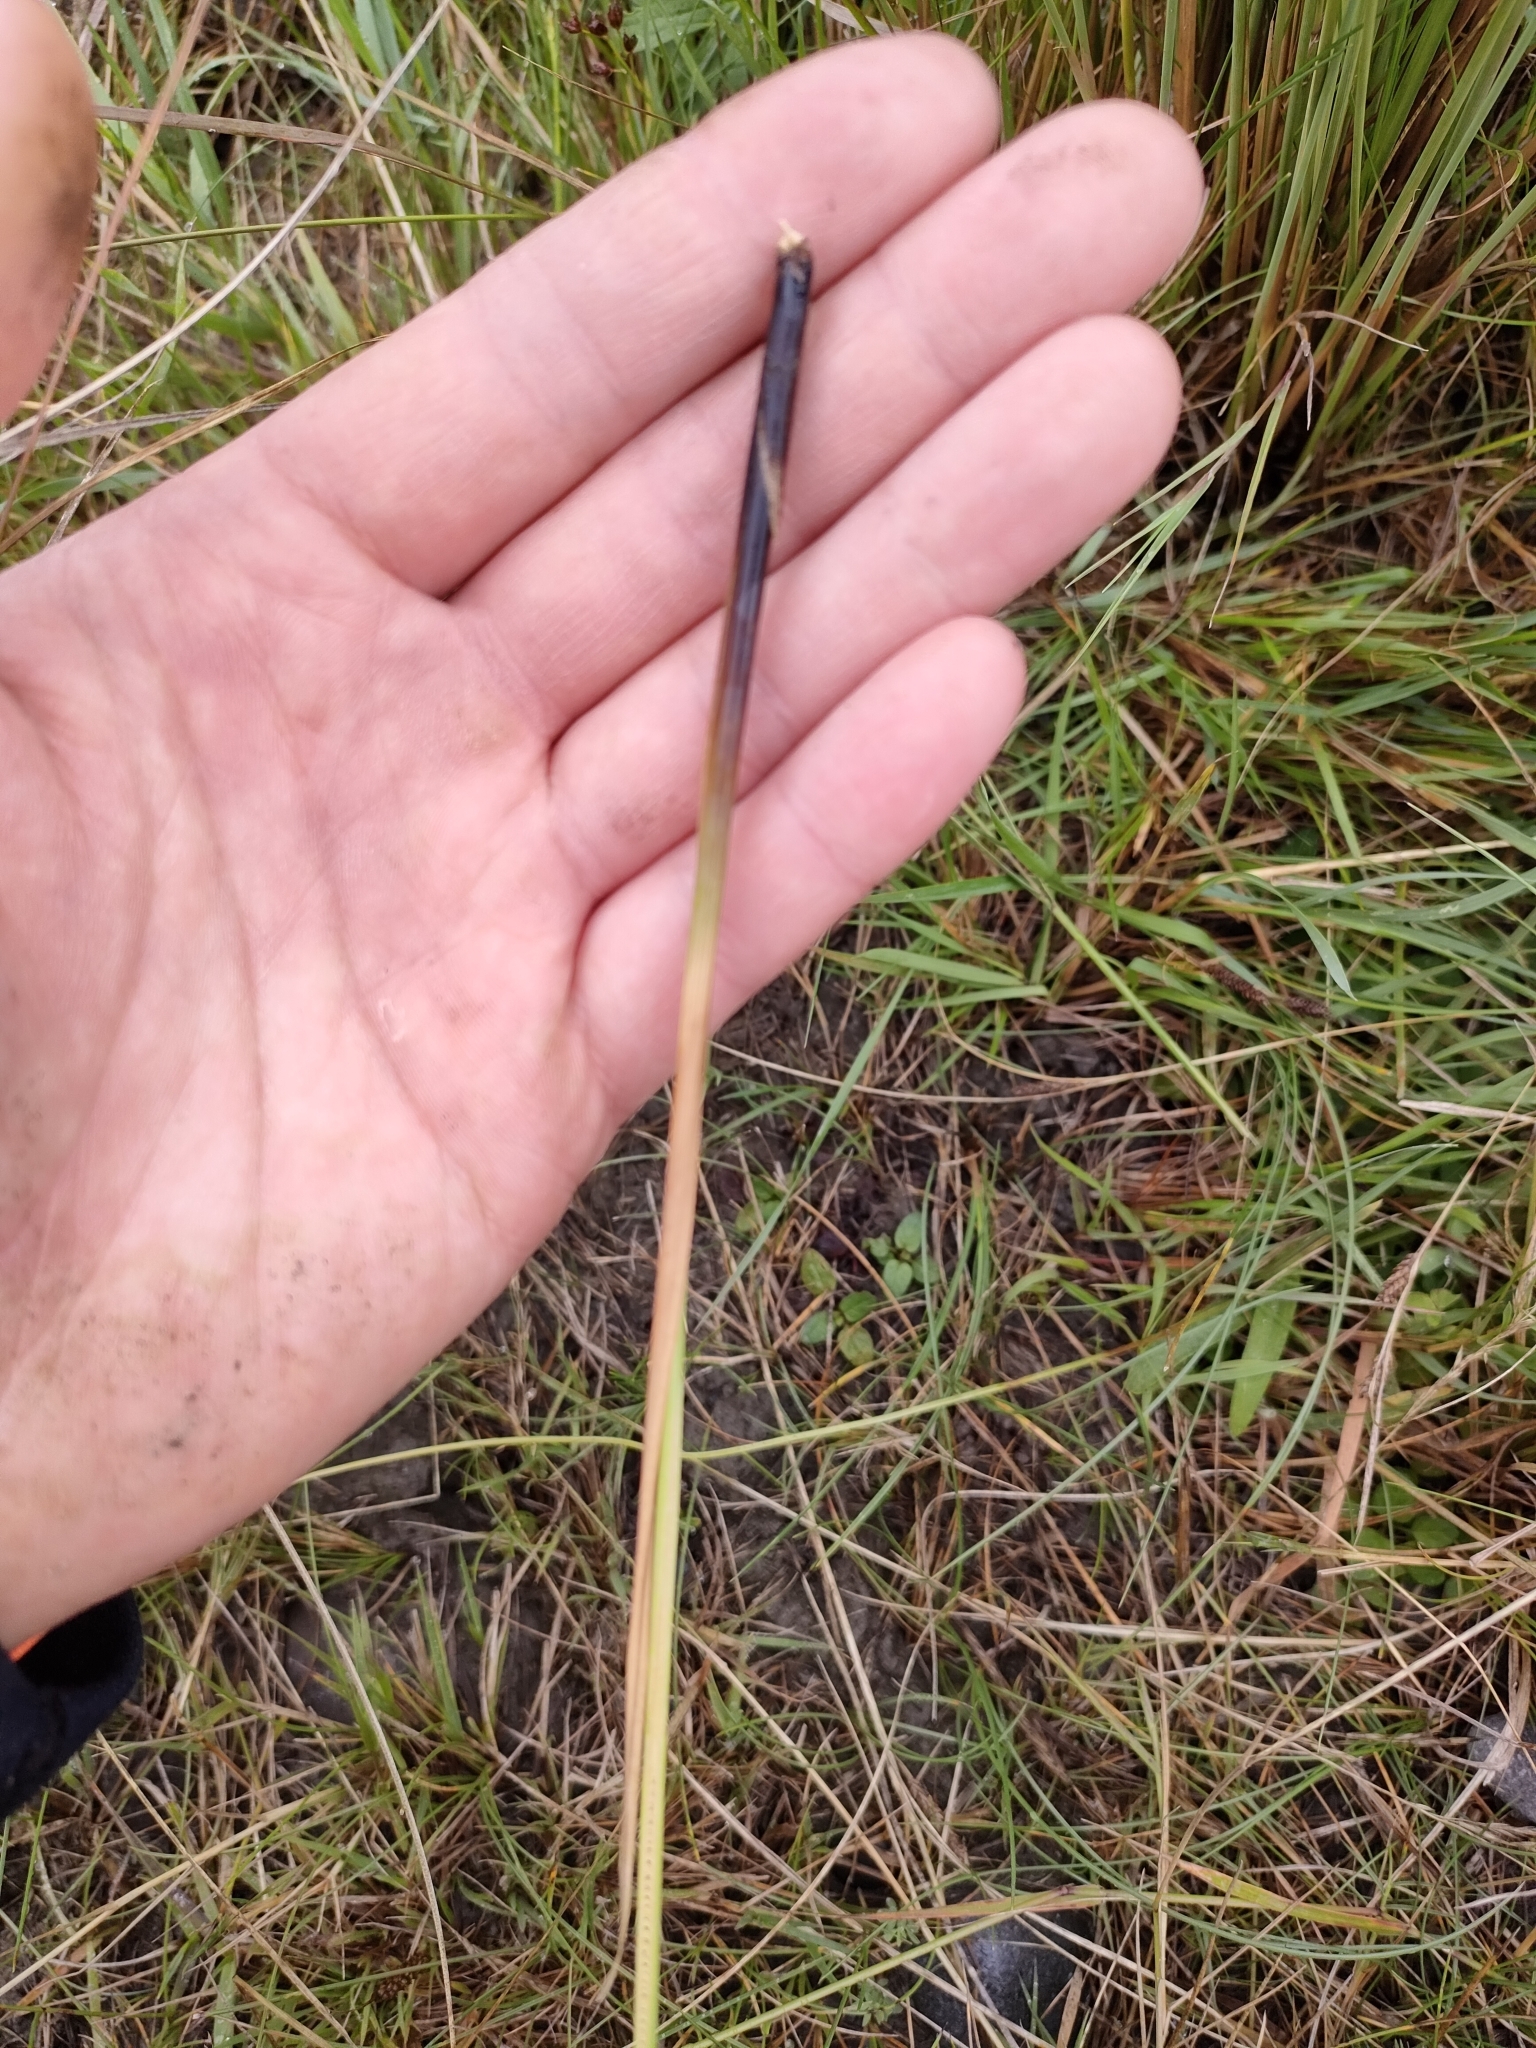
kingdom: Plantae
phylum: Tracheophyta
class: Liliopsida
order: Poales
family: Juncaceae
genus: Juncus
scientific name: Juncus sarophorus
